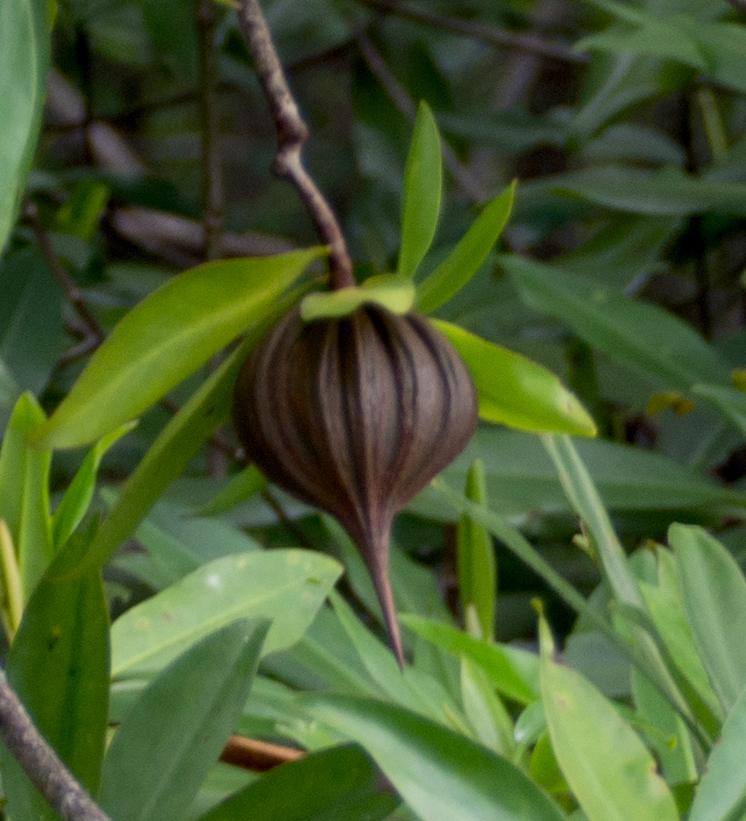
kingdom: Plantae
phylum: Tracheophyta
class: Magnoliopsida
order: Ericales
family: Tetrameristaceae
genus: Pelliciera
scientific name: Pelliciera rhizophorae
